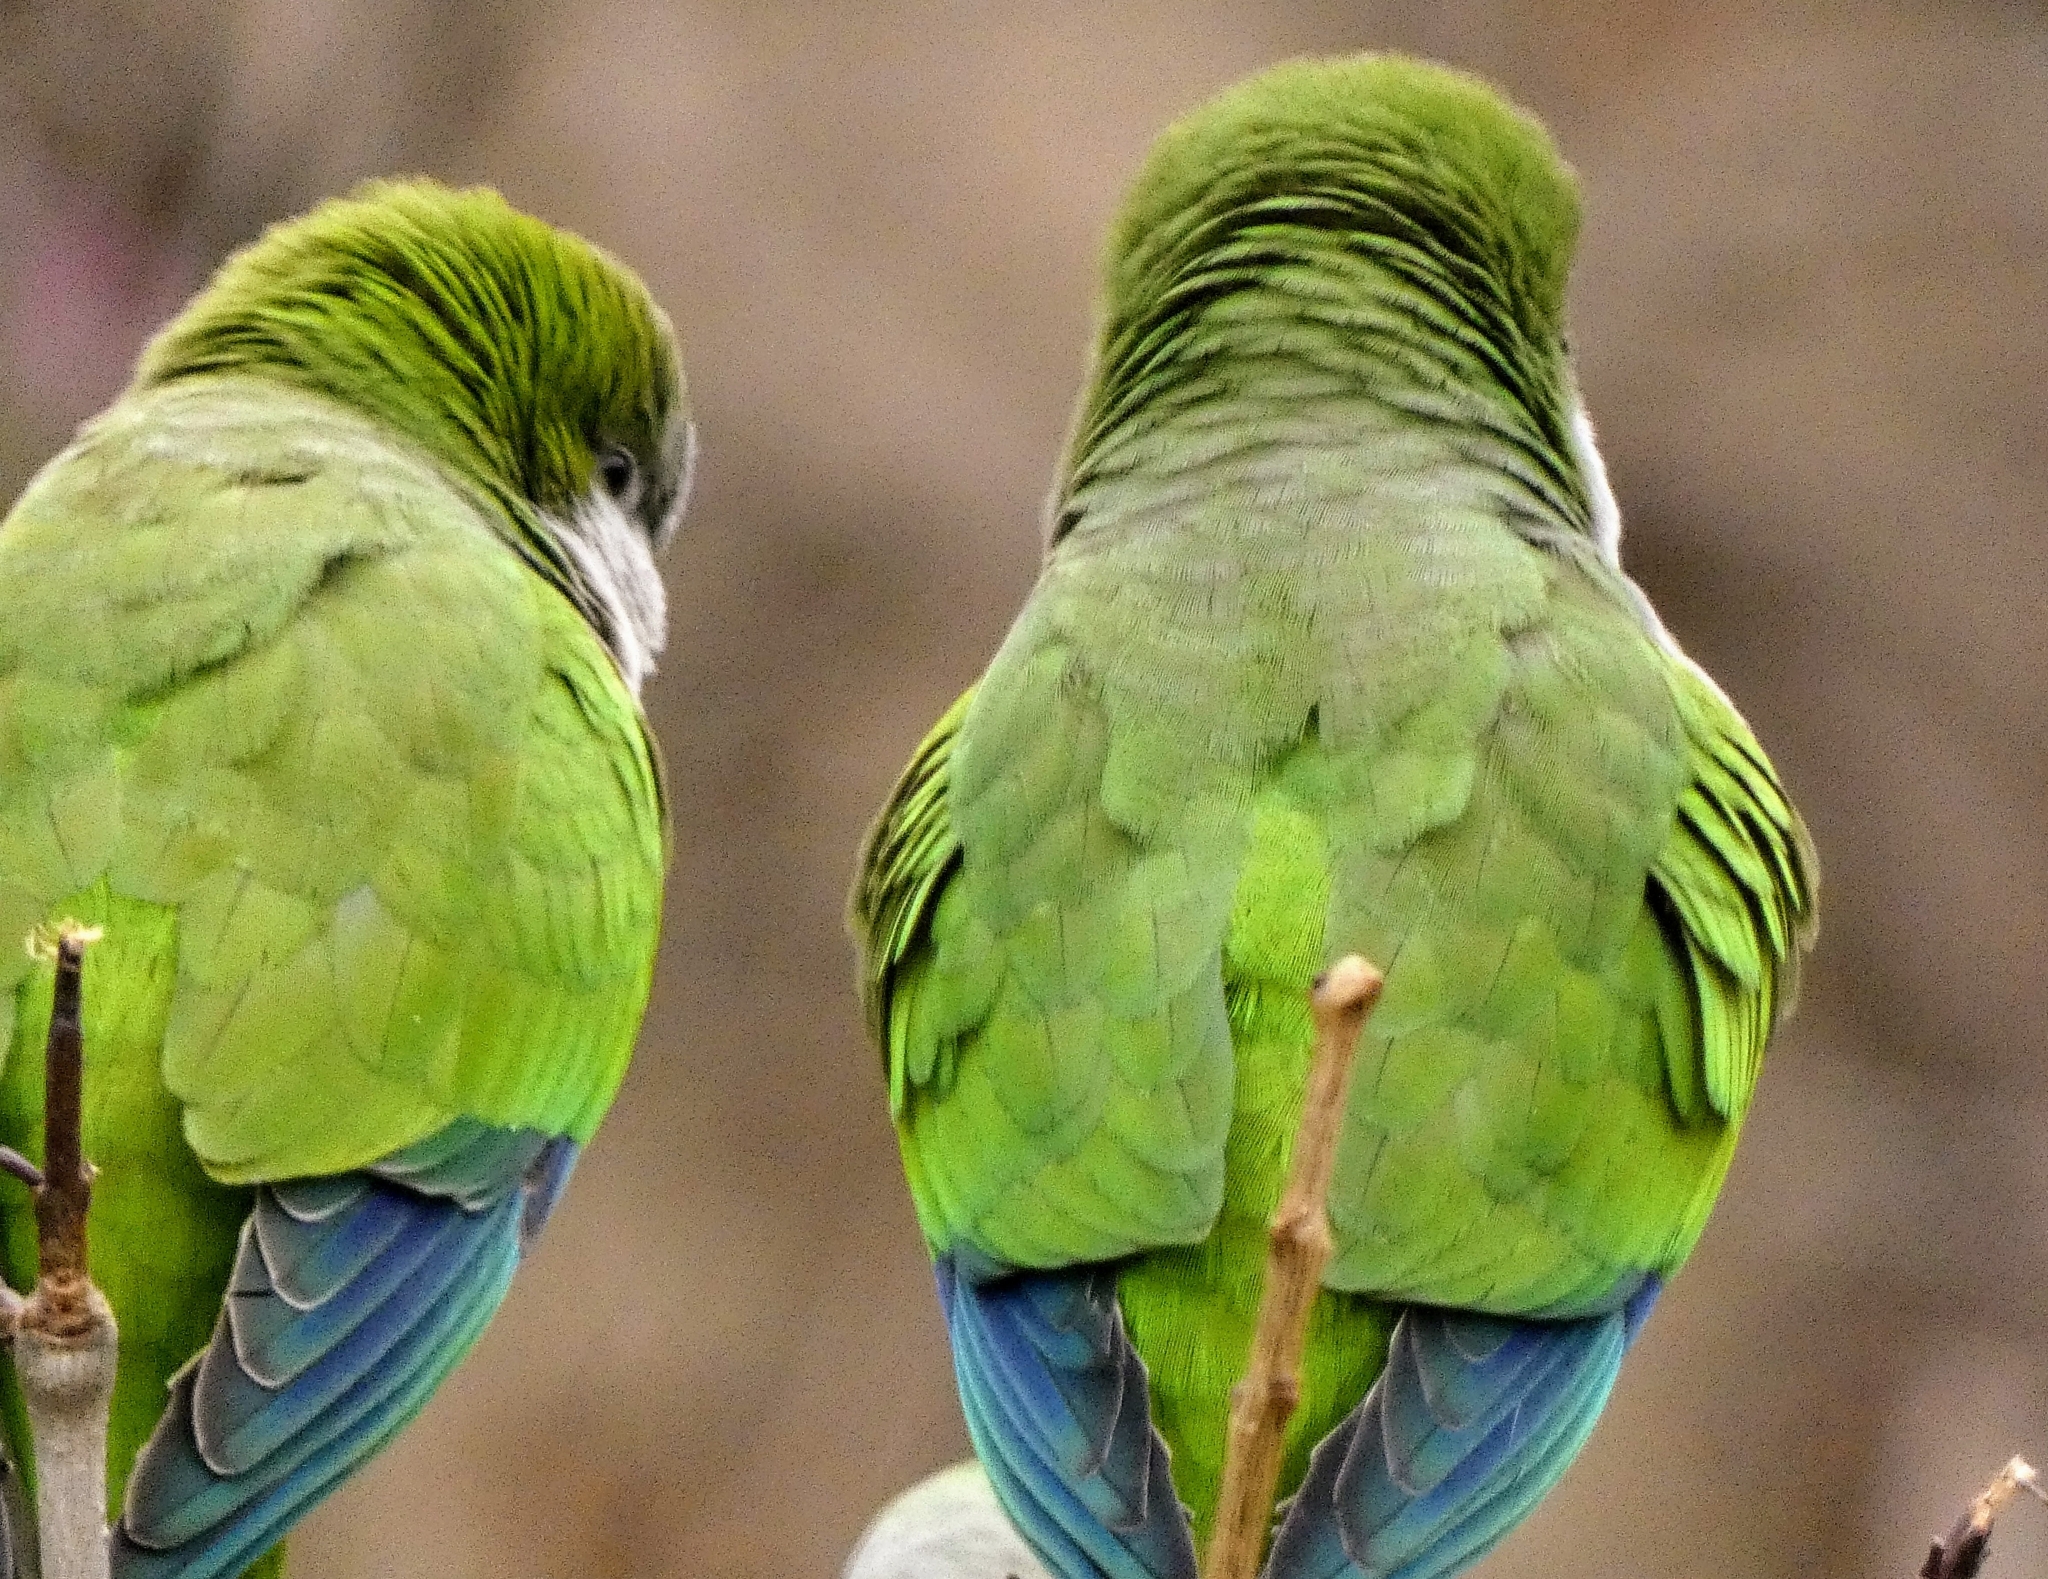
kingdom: Animalia
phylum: Chordata
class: Aves
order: Psittaciformes
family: Psittacidae
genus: Myiopsitta
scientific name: Myiopsitta monachus
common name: Monk parakeet
